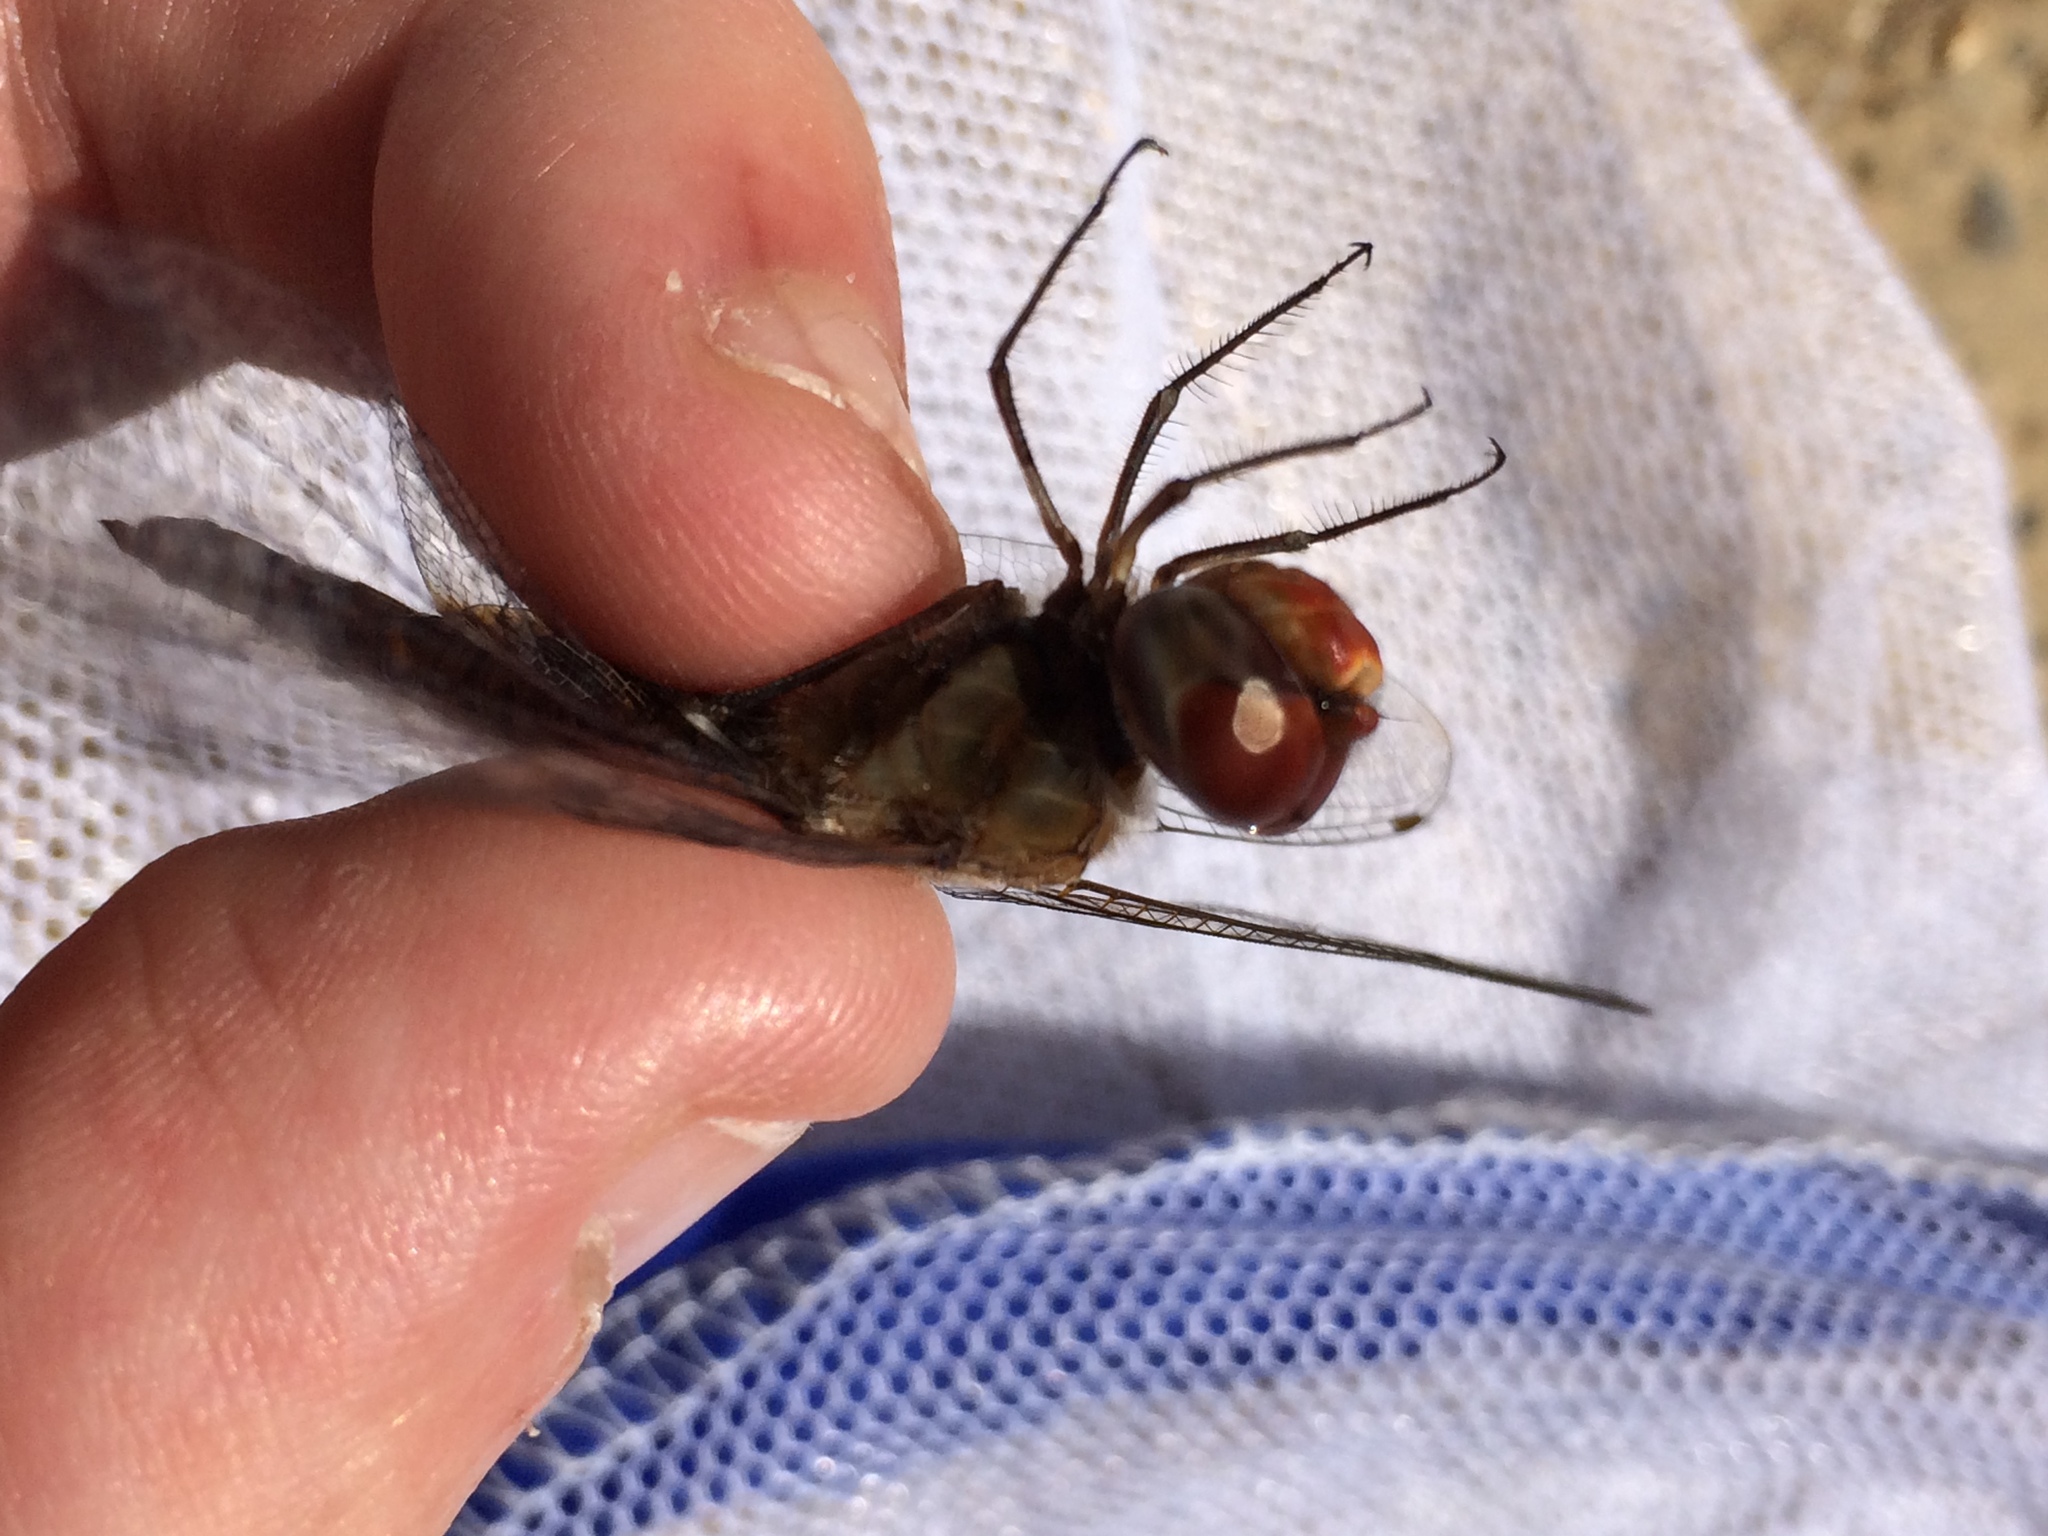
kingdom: Animalia
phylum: Arthropoda
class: Insecta
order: Odonata
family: Libellulidae
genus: Pantala
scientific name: Pantala hymenaea
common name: Spot-winged glider
